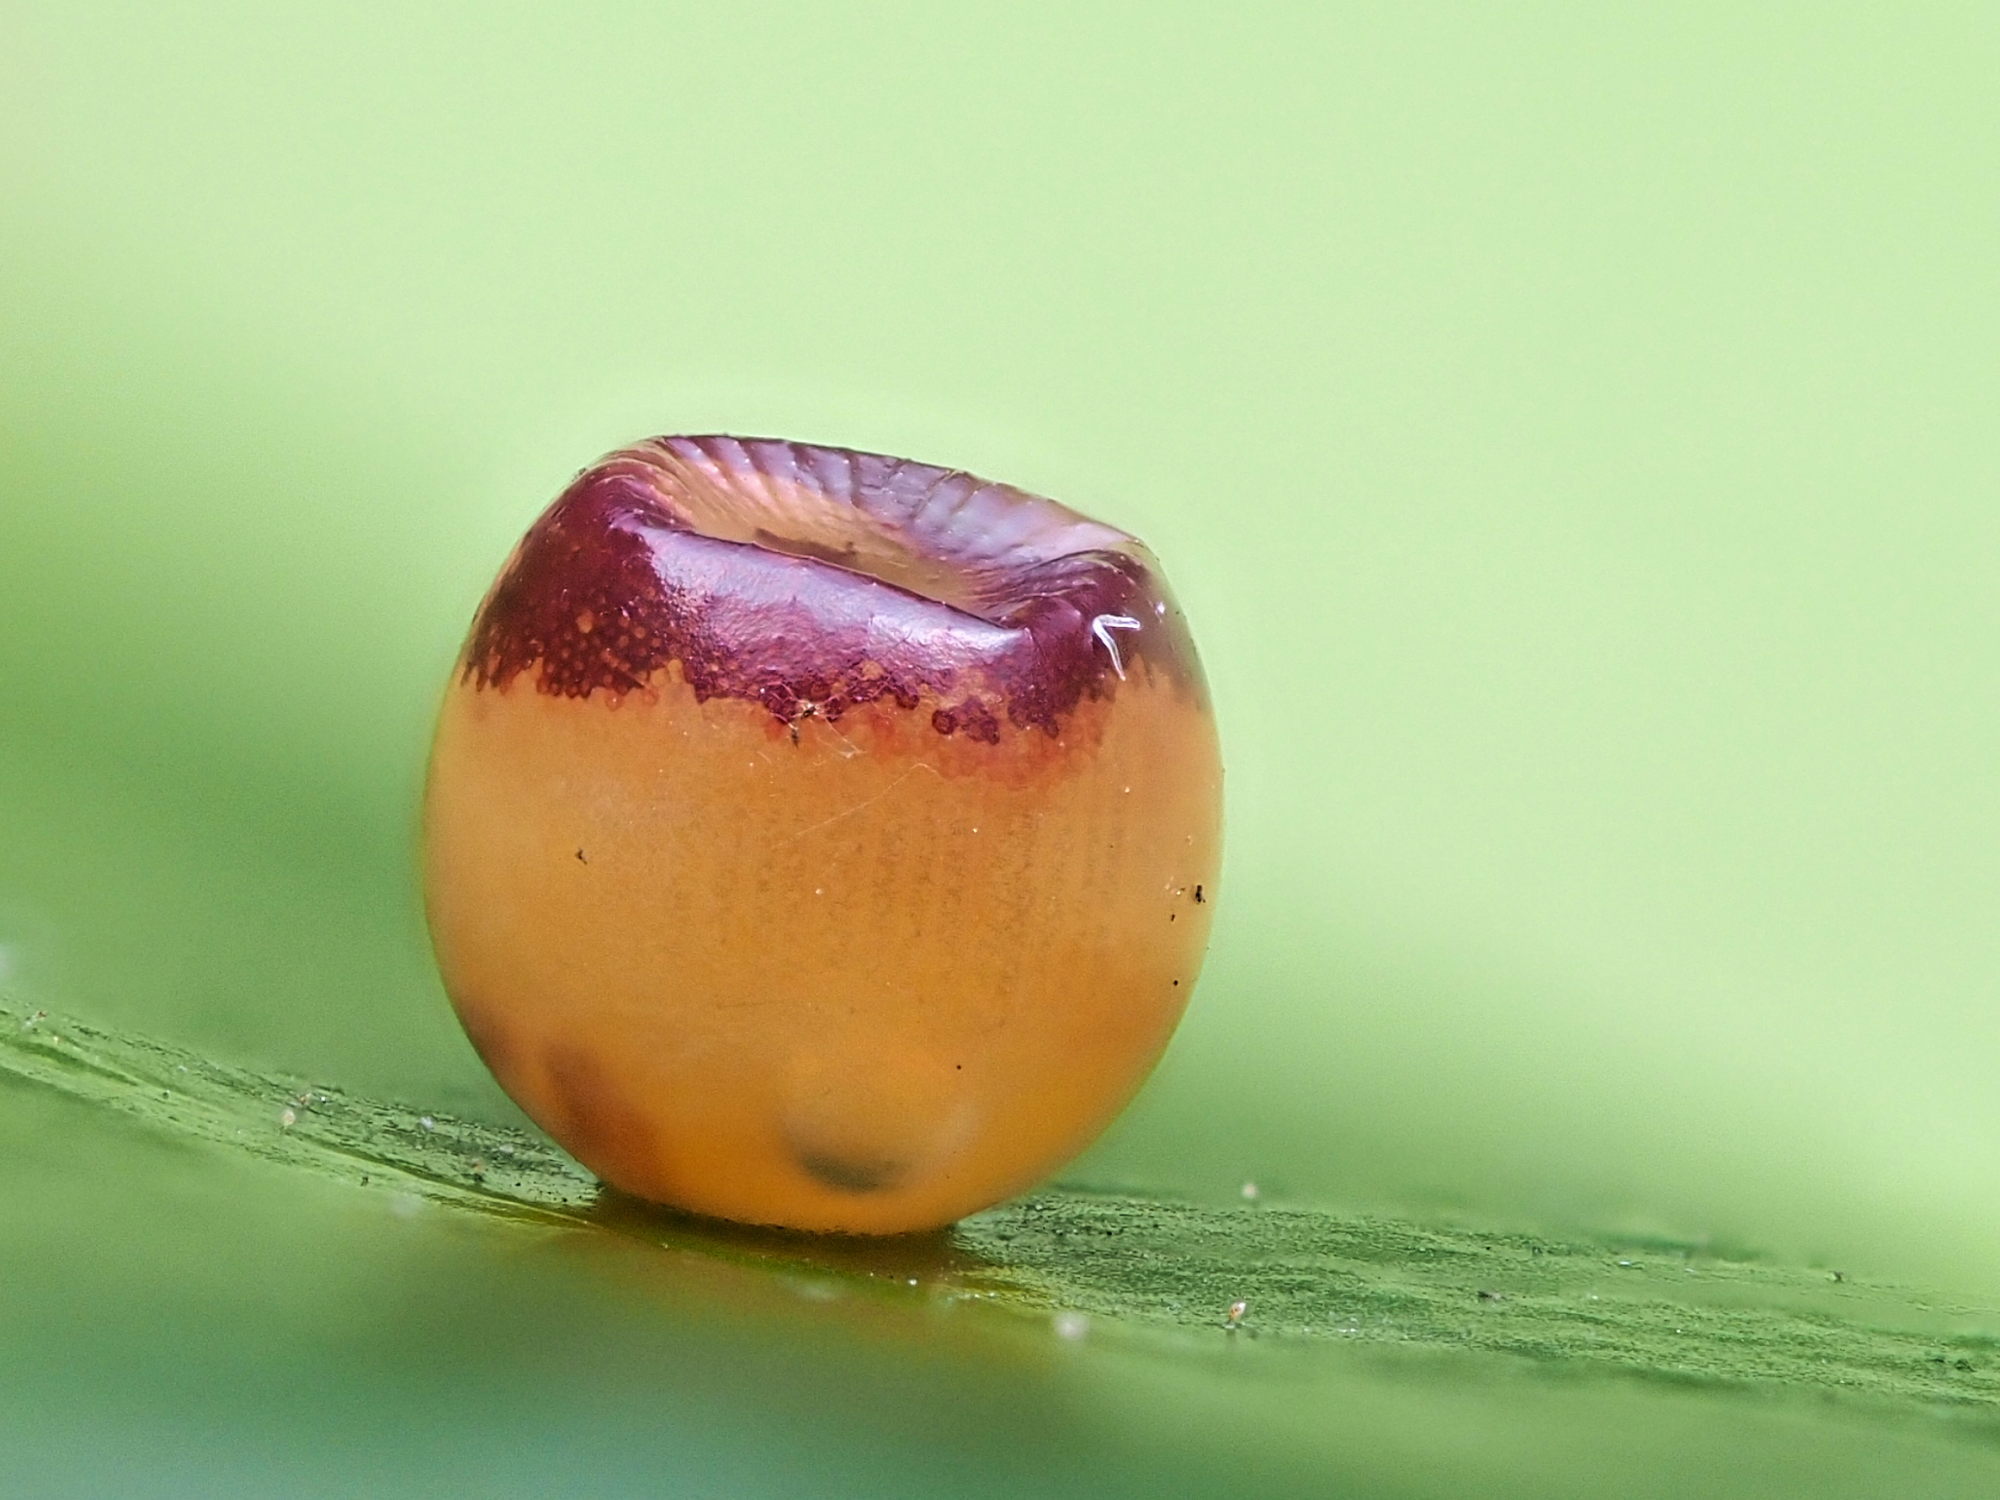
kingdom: Animalia
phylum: Arthropoda
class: Insecta
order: Lepidoptera
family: Nymphalidae
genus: Charaxes
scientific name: Charaxes jasius
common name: Two tailed pasha
